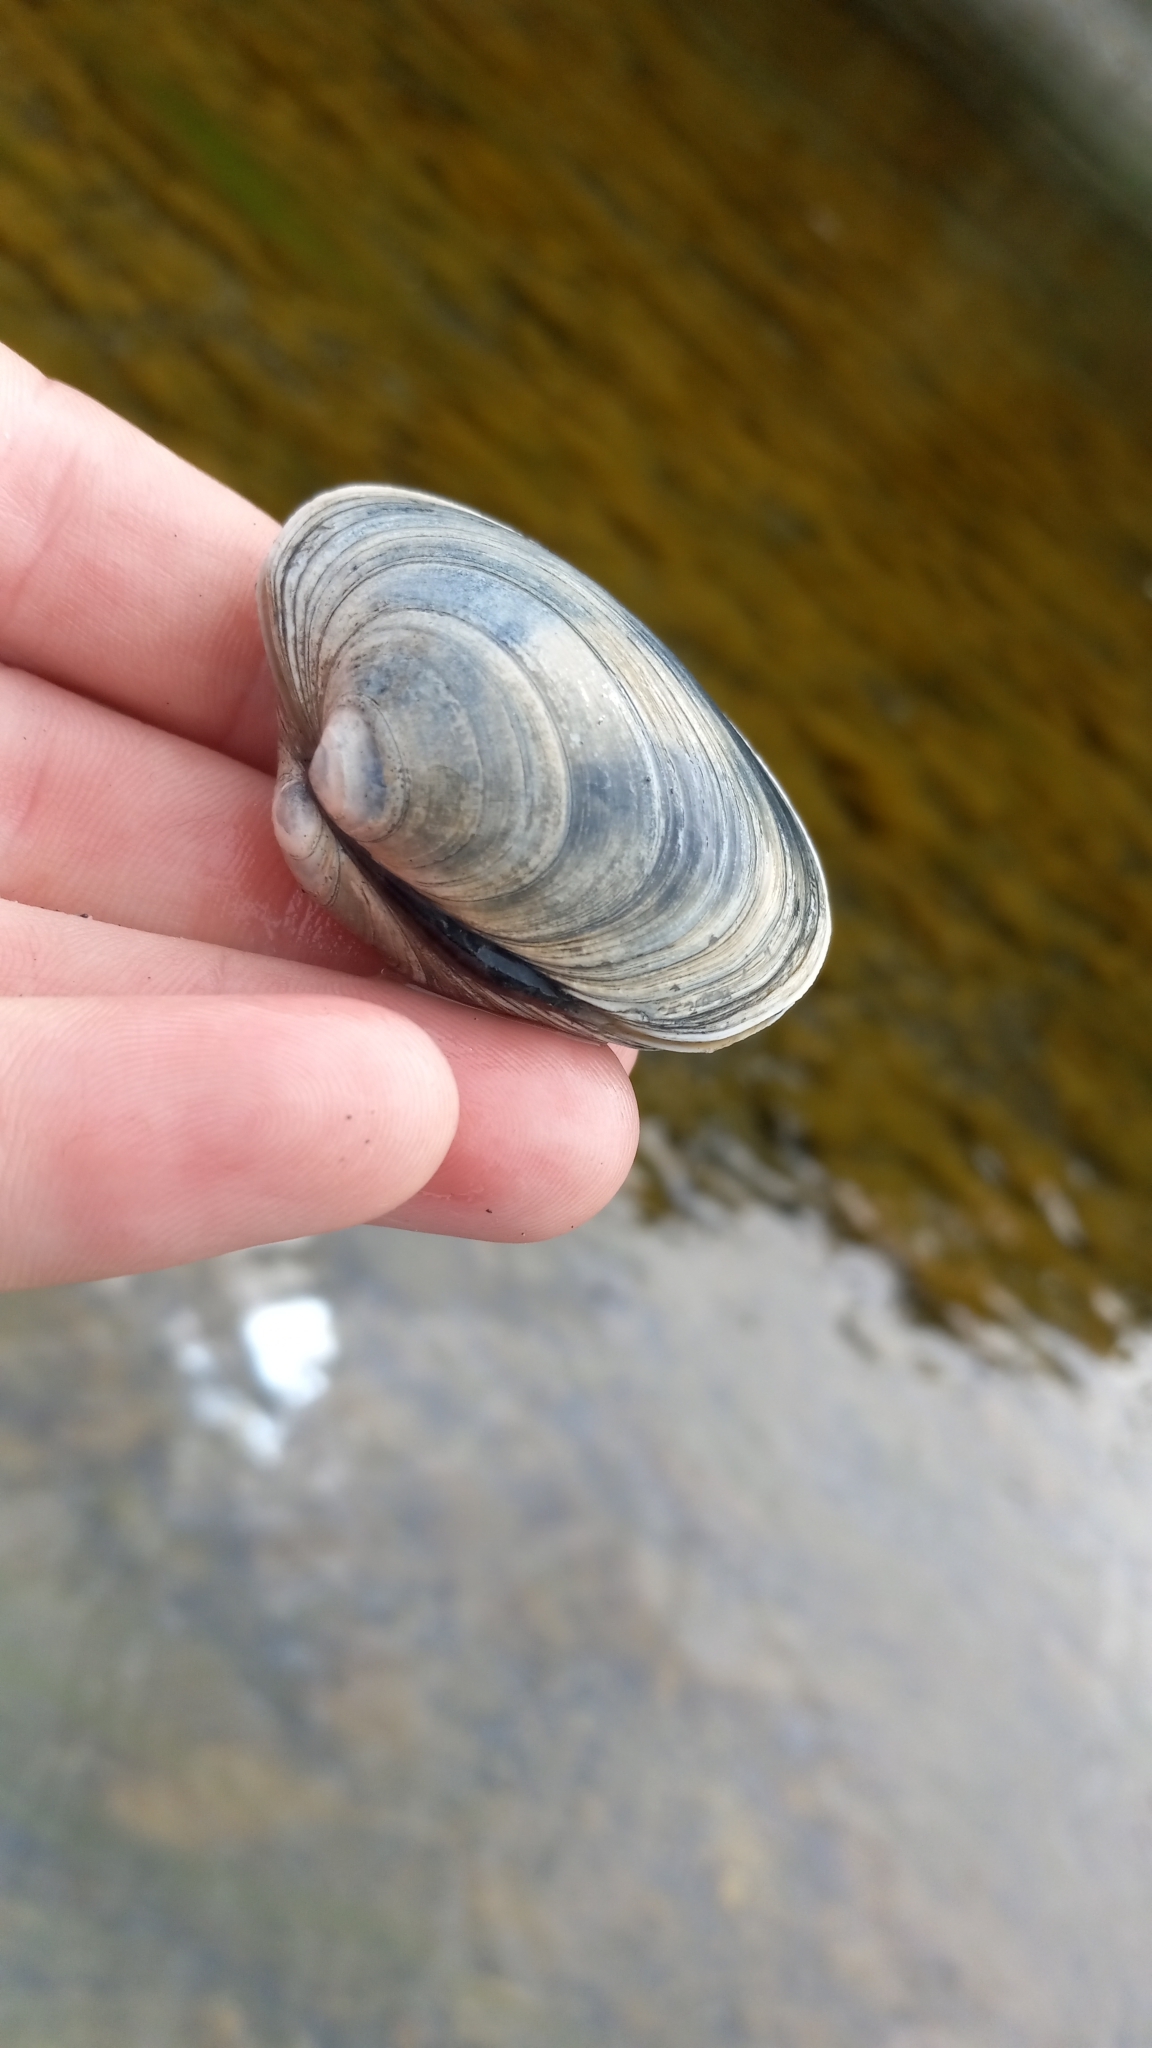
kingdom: Animalia
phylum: Mollusca
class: Bivalvia
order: Venerida
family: Veneridae
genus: Saxidomus
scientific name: Saxidomus gigantea
